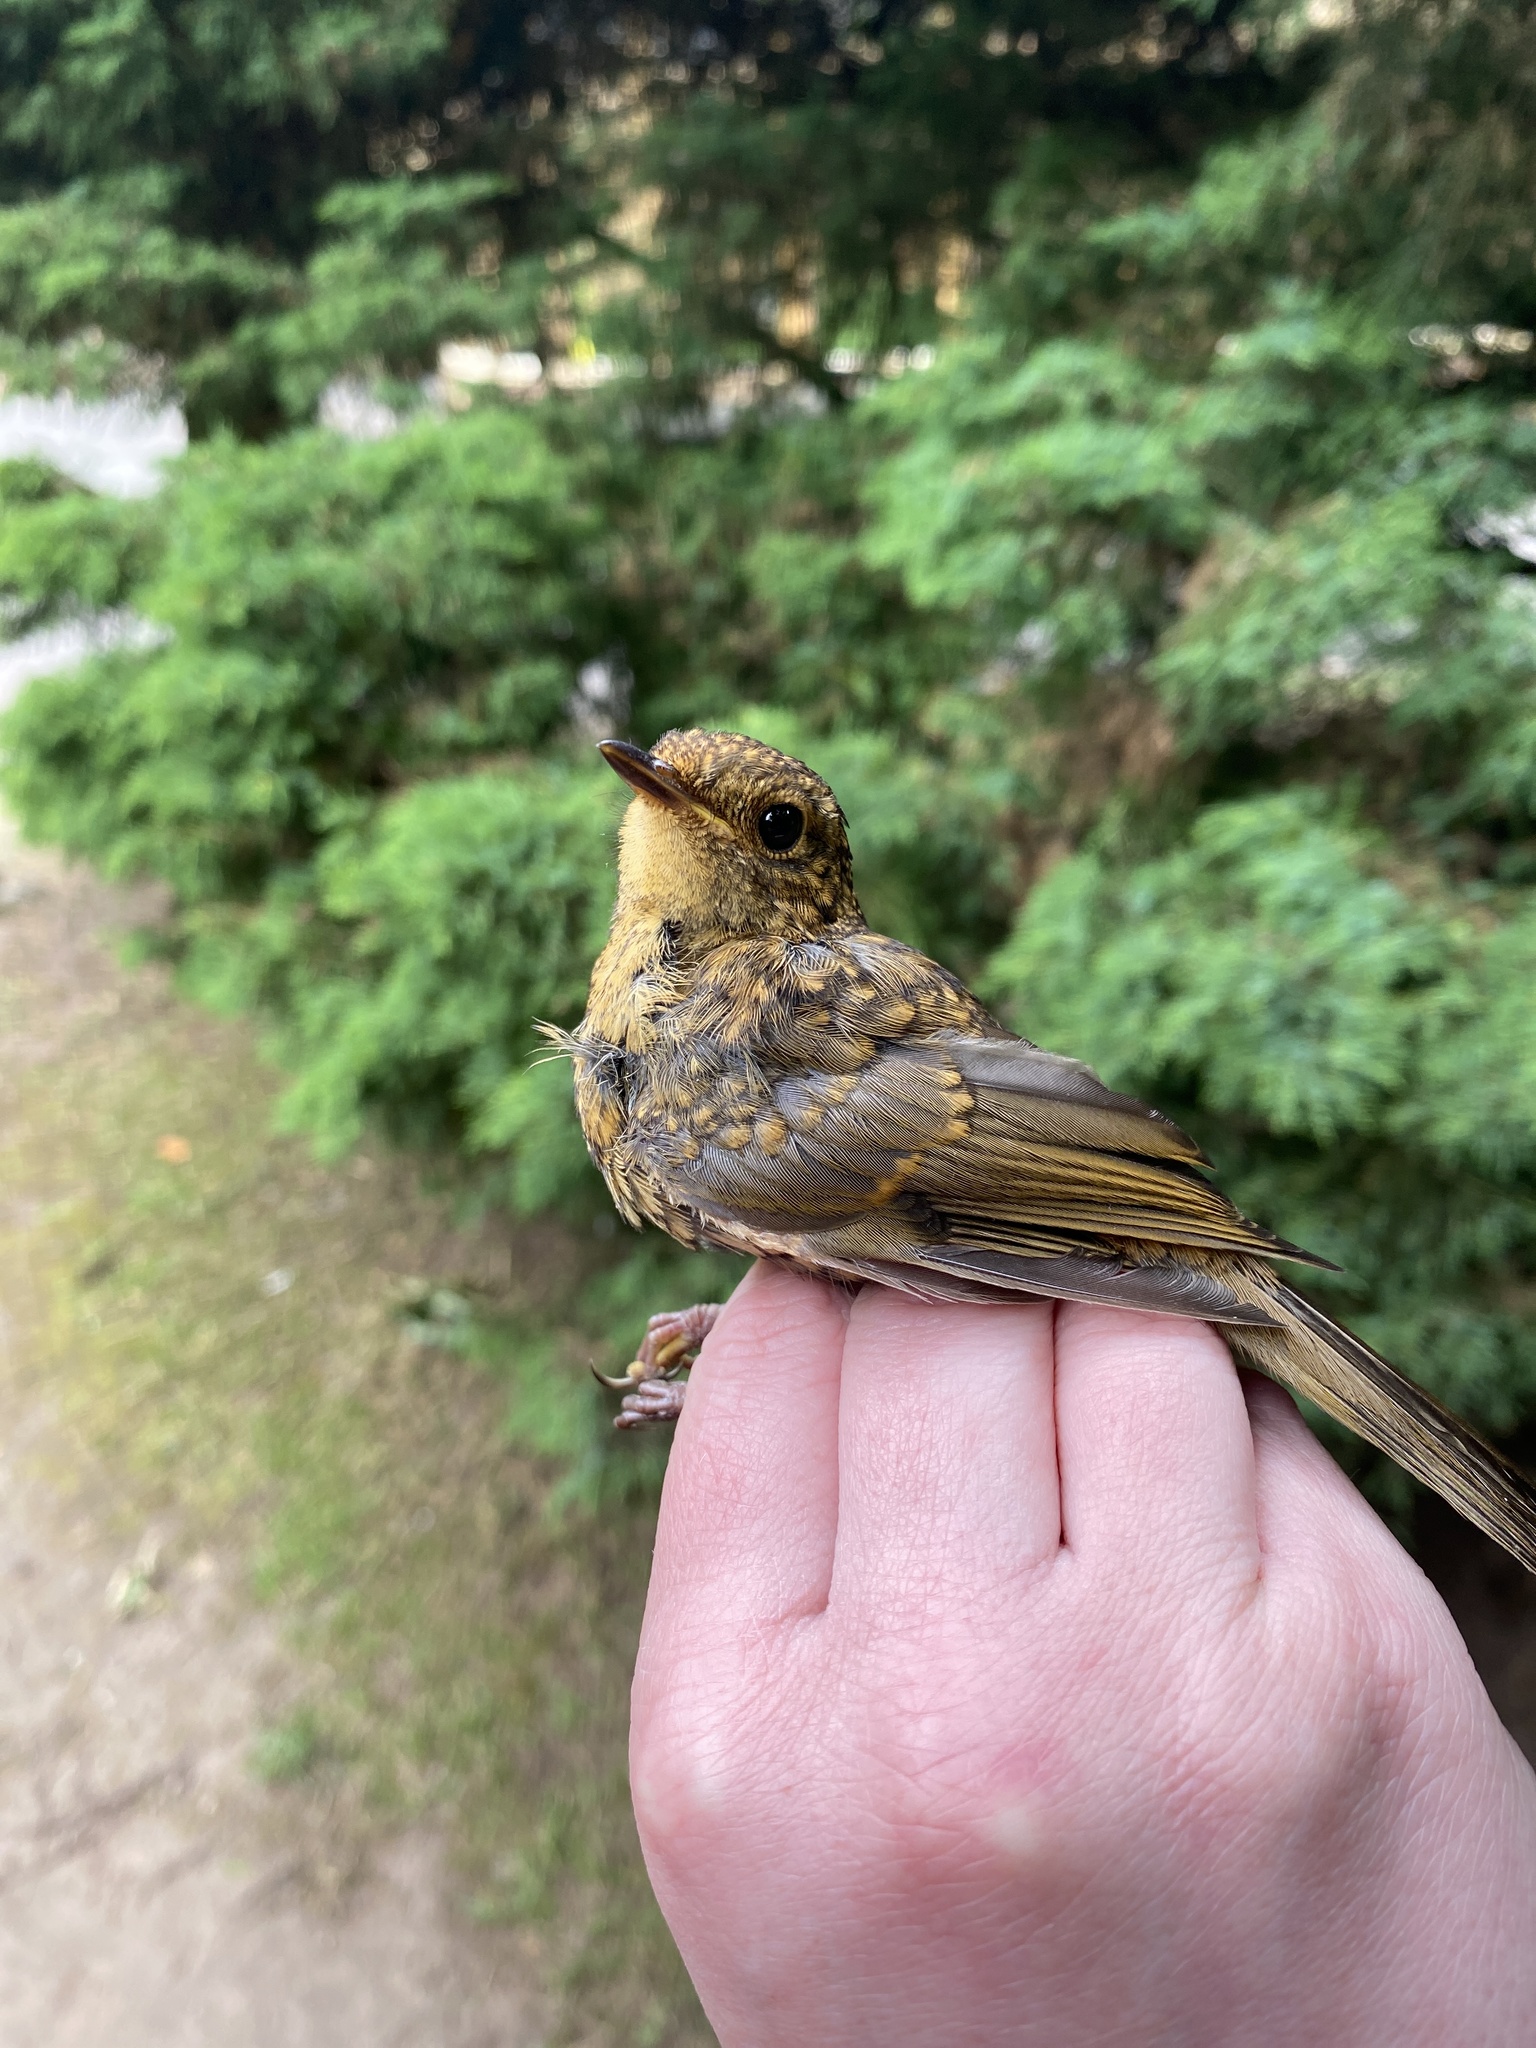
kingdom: Animalia
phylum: Chordata
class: Aves
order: Passeriformes
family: Muscicapidae
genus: Erithacus
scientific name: Erithacus rubecula
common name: European robin
